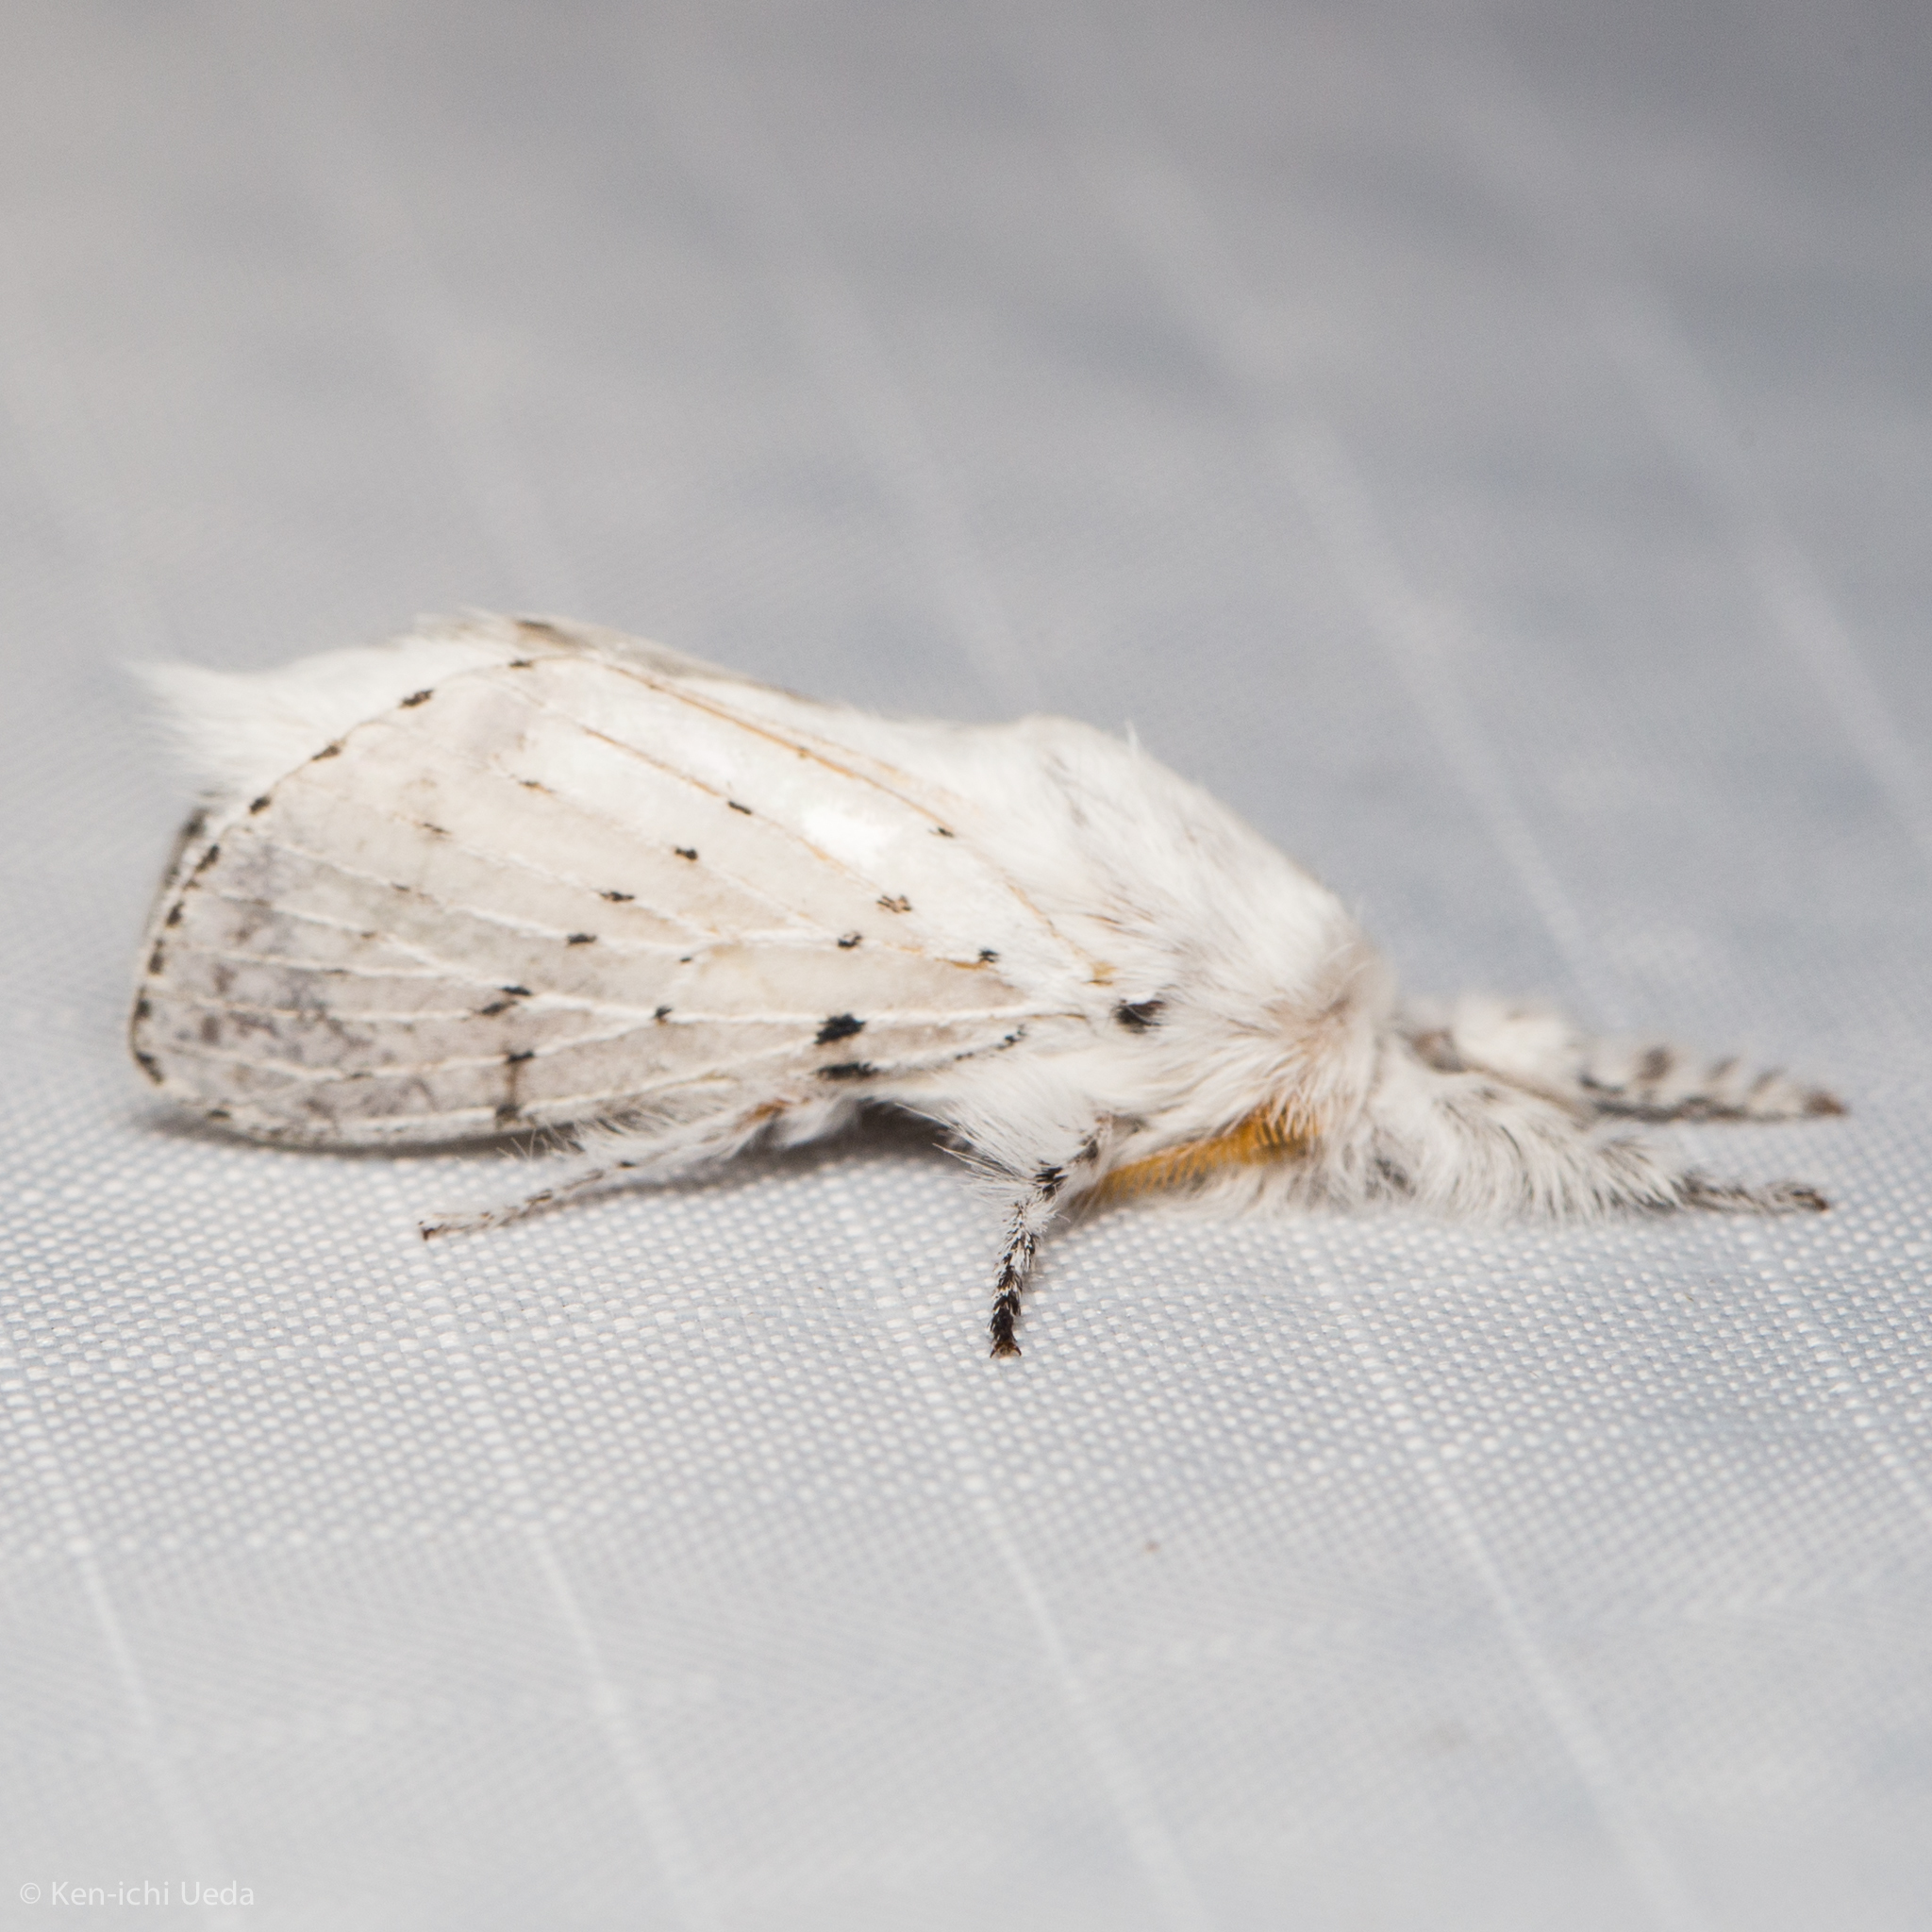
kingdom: Animalia
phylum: Arthropoda
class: Insecta
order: Lepidoptera
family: Lasiocampidae
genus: Artace
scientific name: Artace cribrarius
